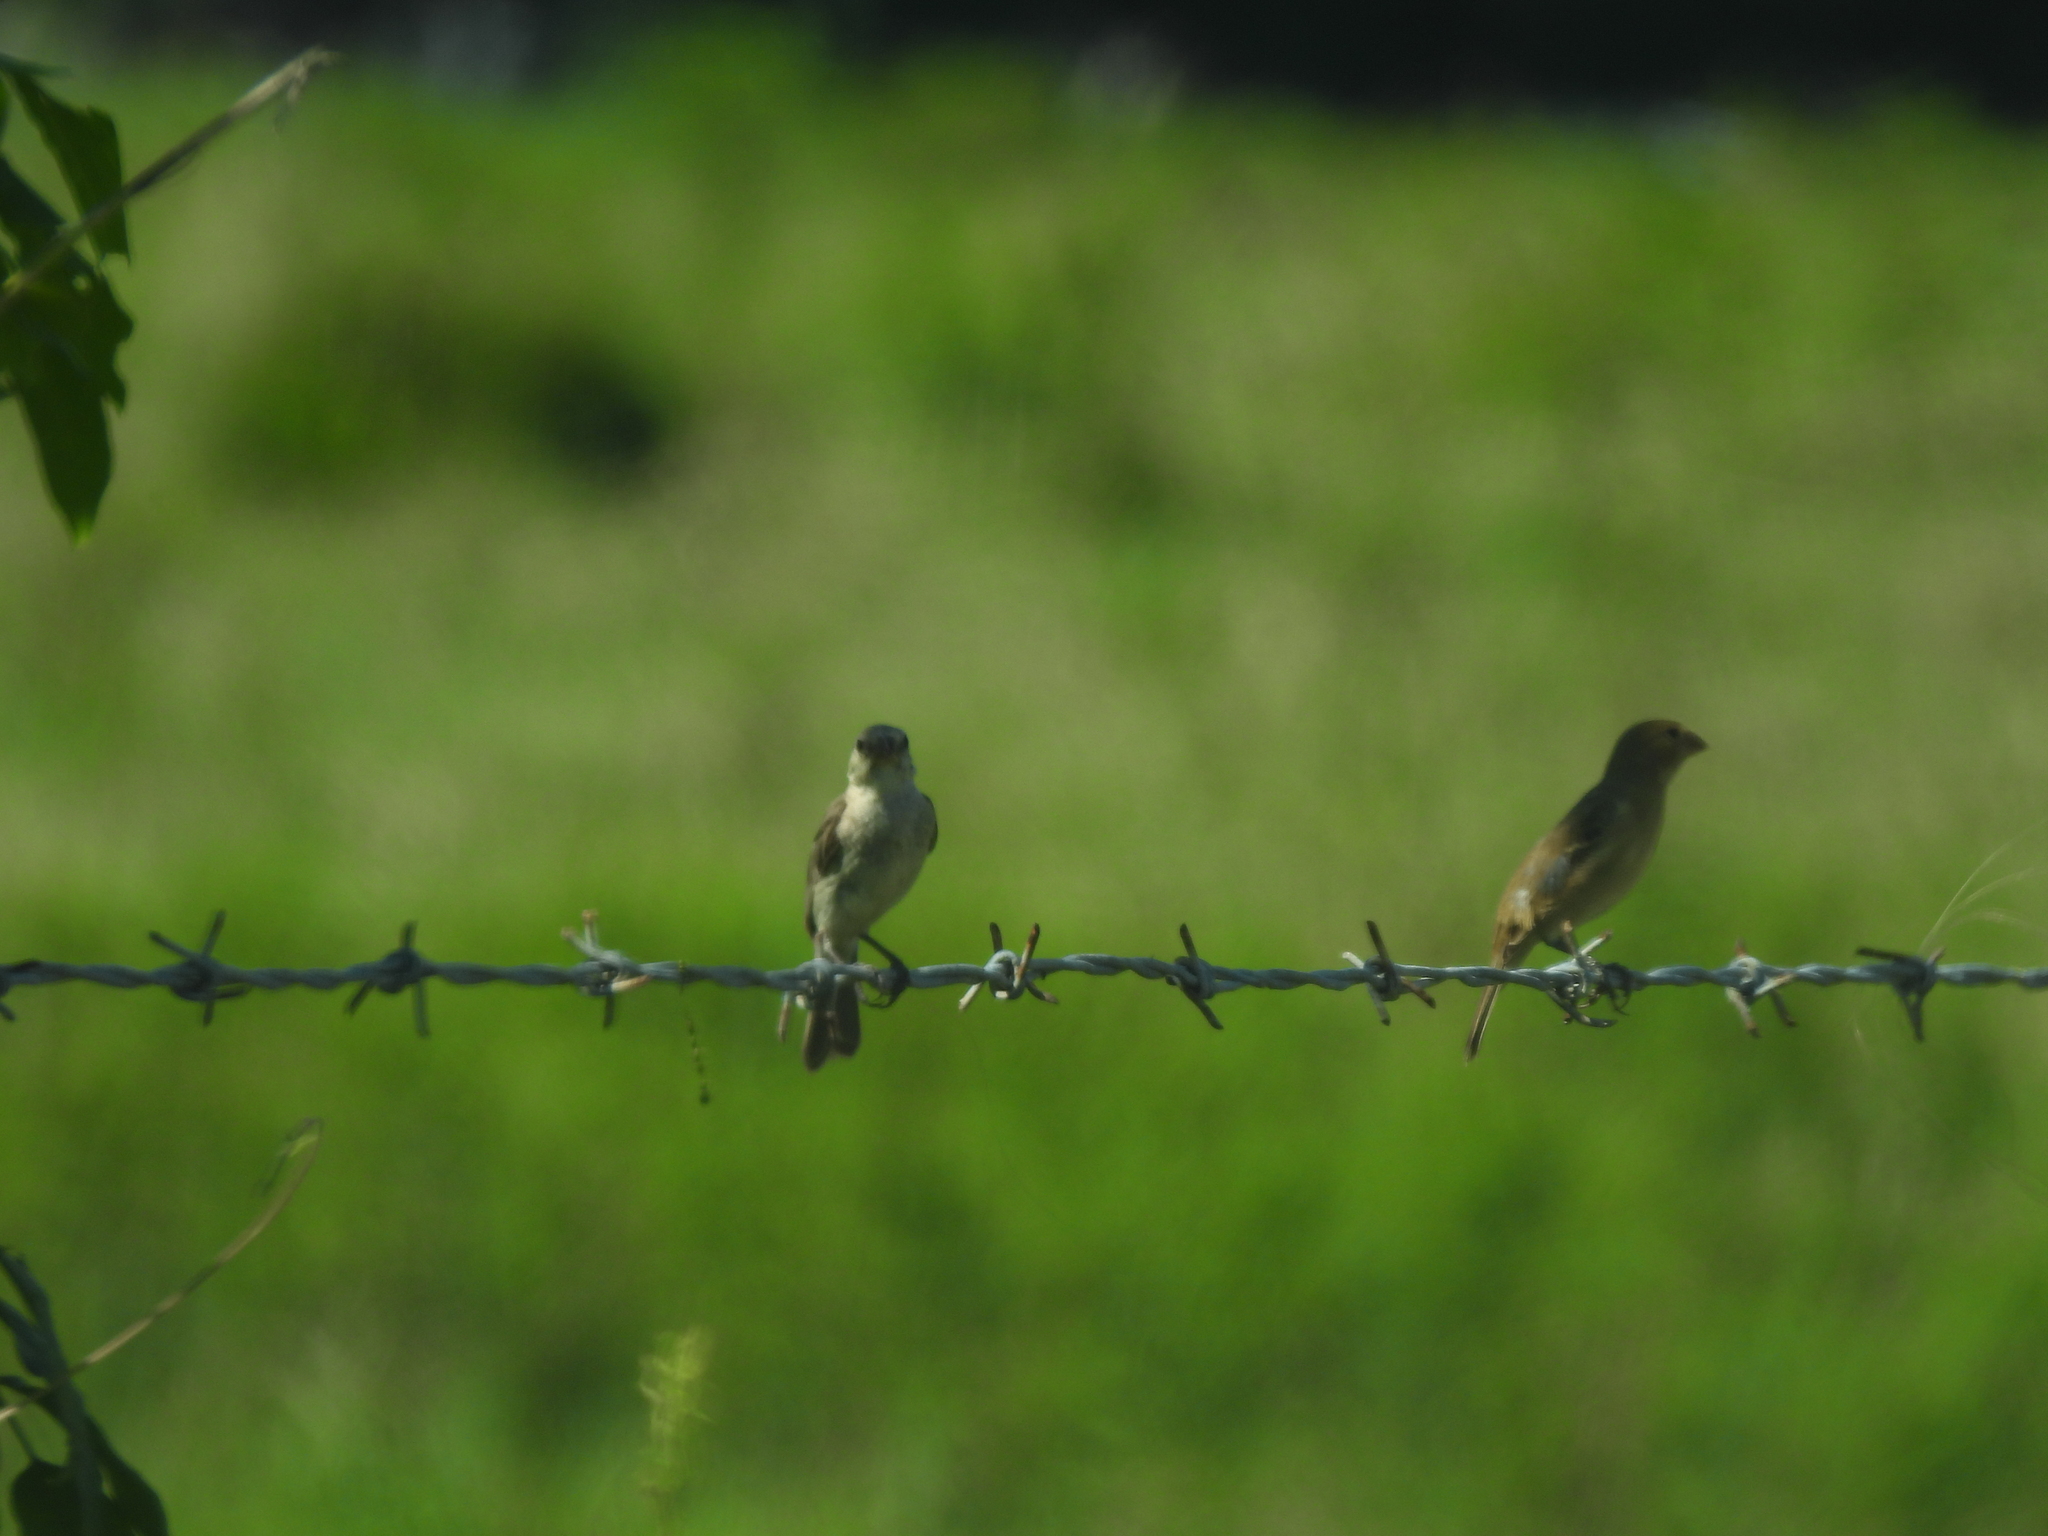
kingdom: Animalia
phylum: Chordata
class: Aves
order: Passeriformes
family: Thraupidae
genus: Sporophila
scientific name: Sporophila minuta
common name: Ruddy-breasted seedeater
